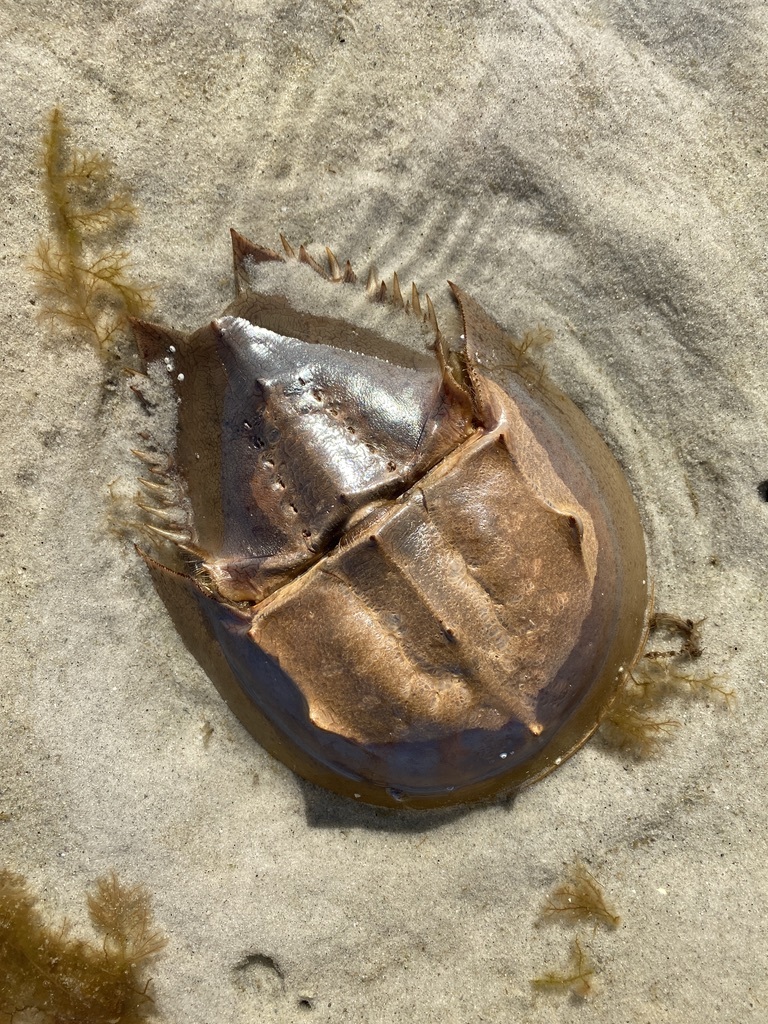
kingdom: Animalia
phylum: Arthropoda
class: Merostomata
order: Xiphosurida
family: Limulidae
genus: Limulus
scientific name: Limulus polyphemus
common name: Horseshoe crab
